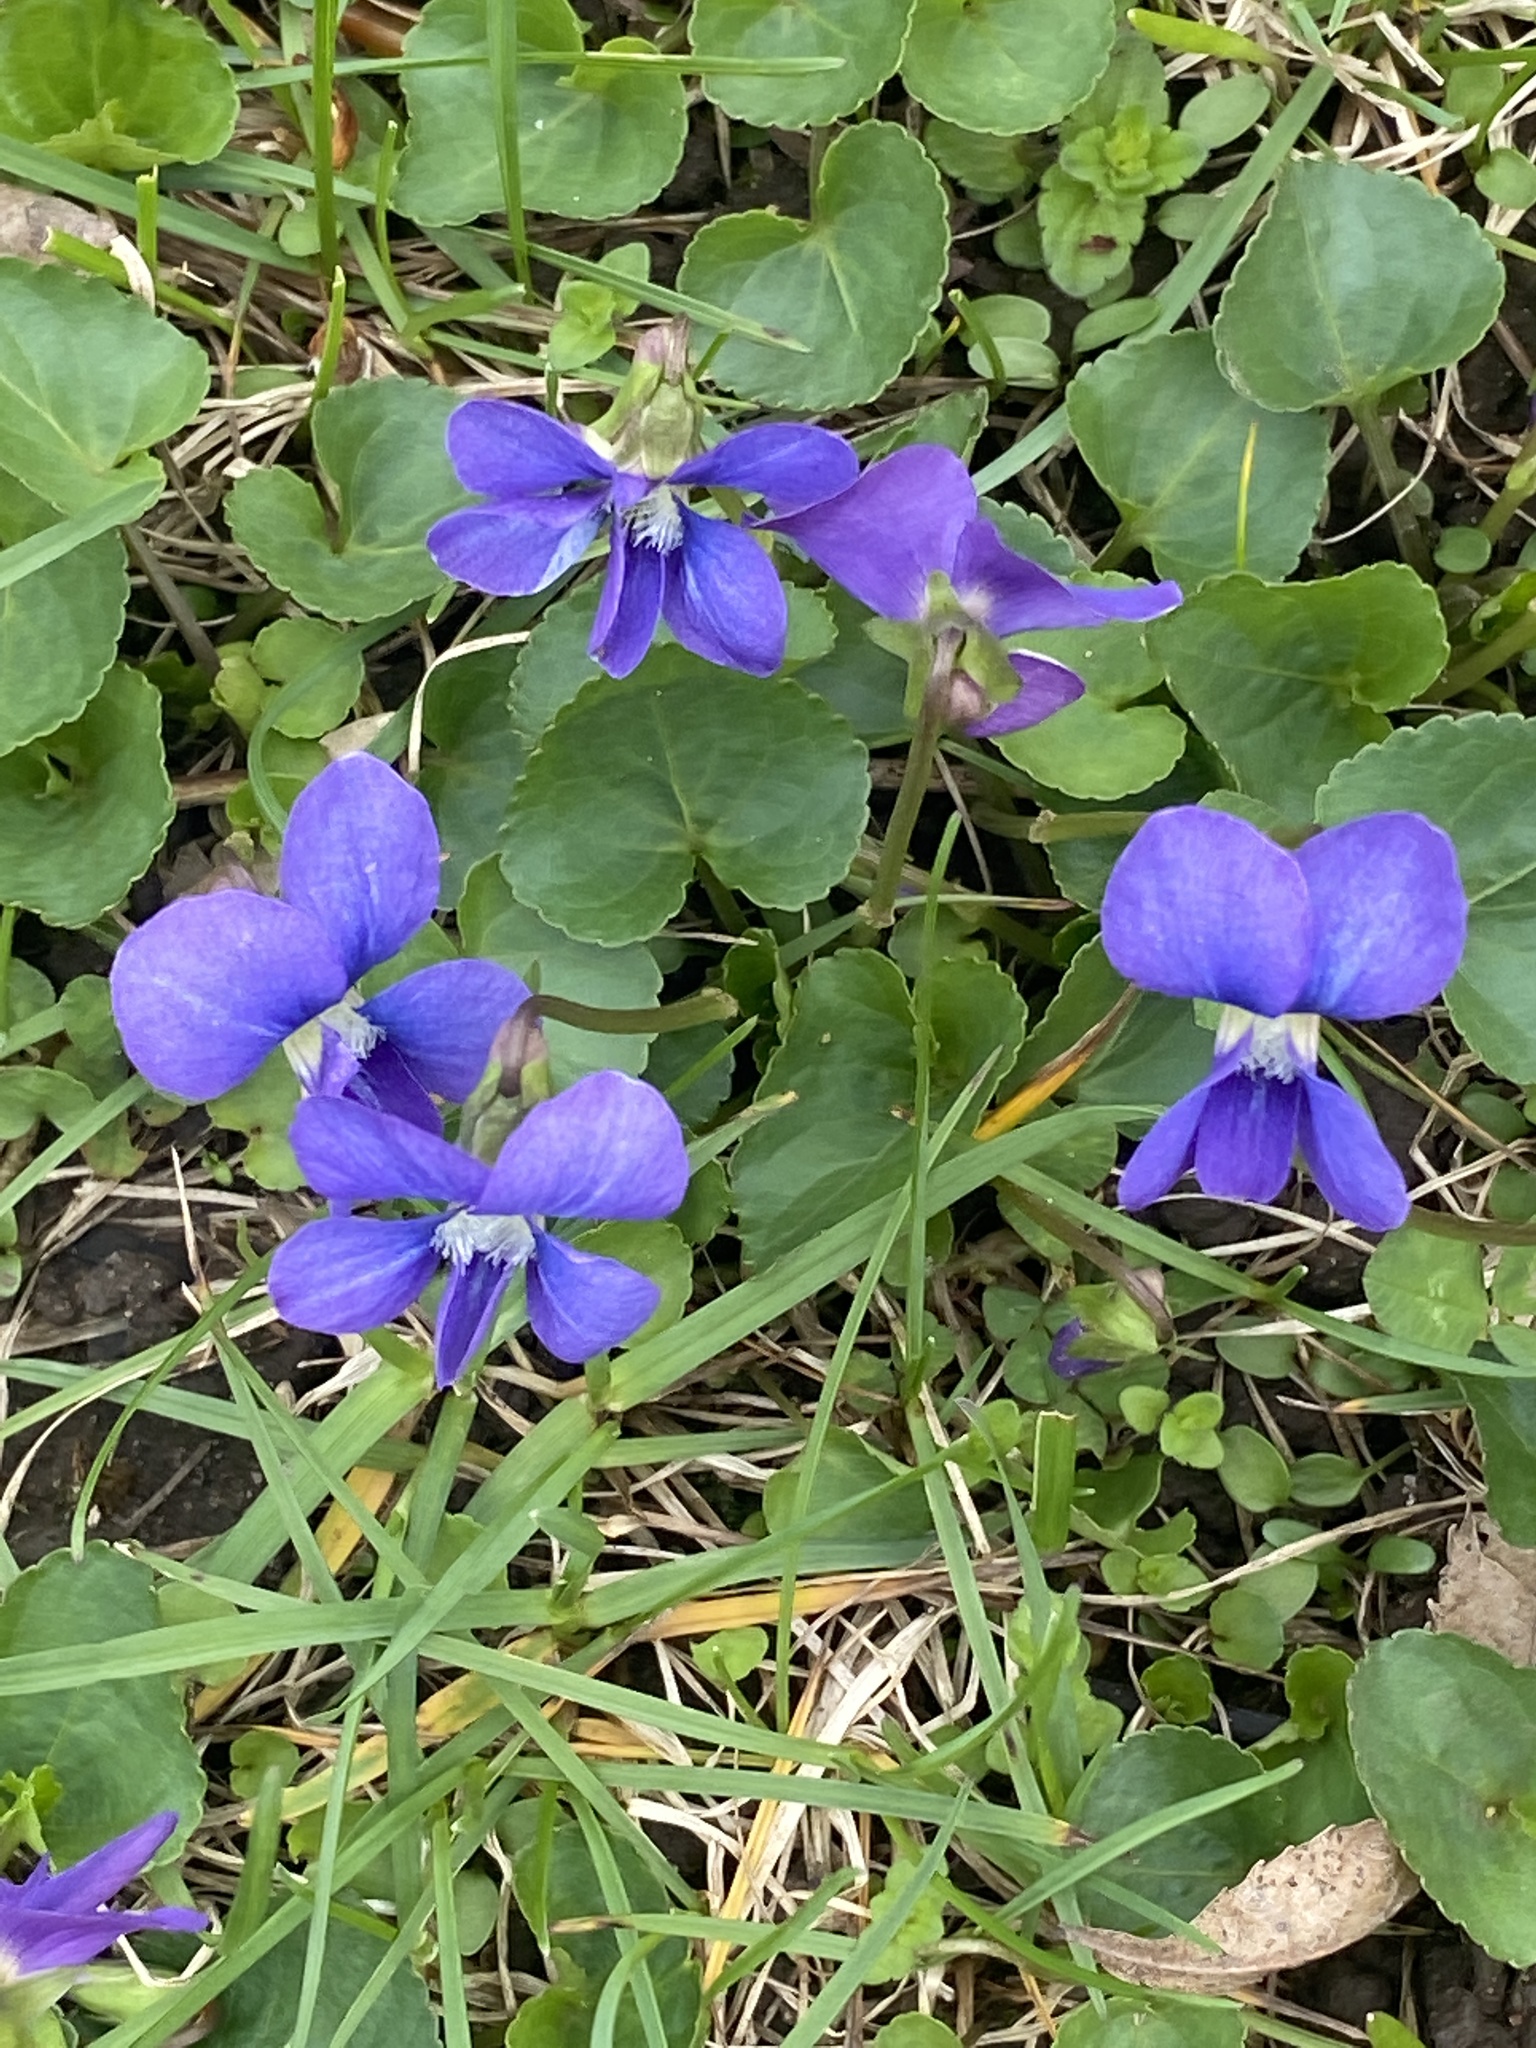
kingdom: Plantae
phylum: Tracheophyta
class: Magnoliopsida
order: Malpighiales
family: Violaceae
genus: Viola
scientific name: Viola sororia
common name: Dooryard violet
